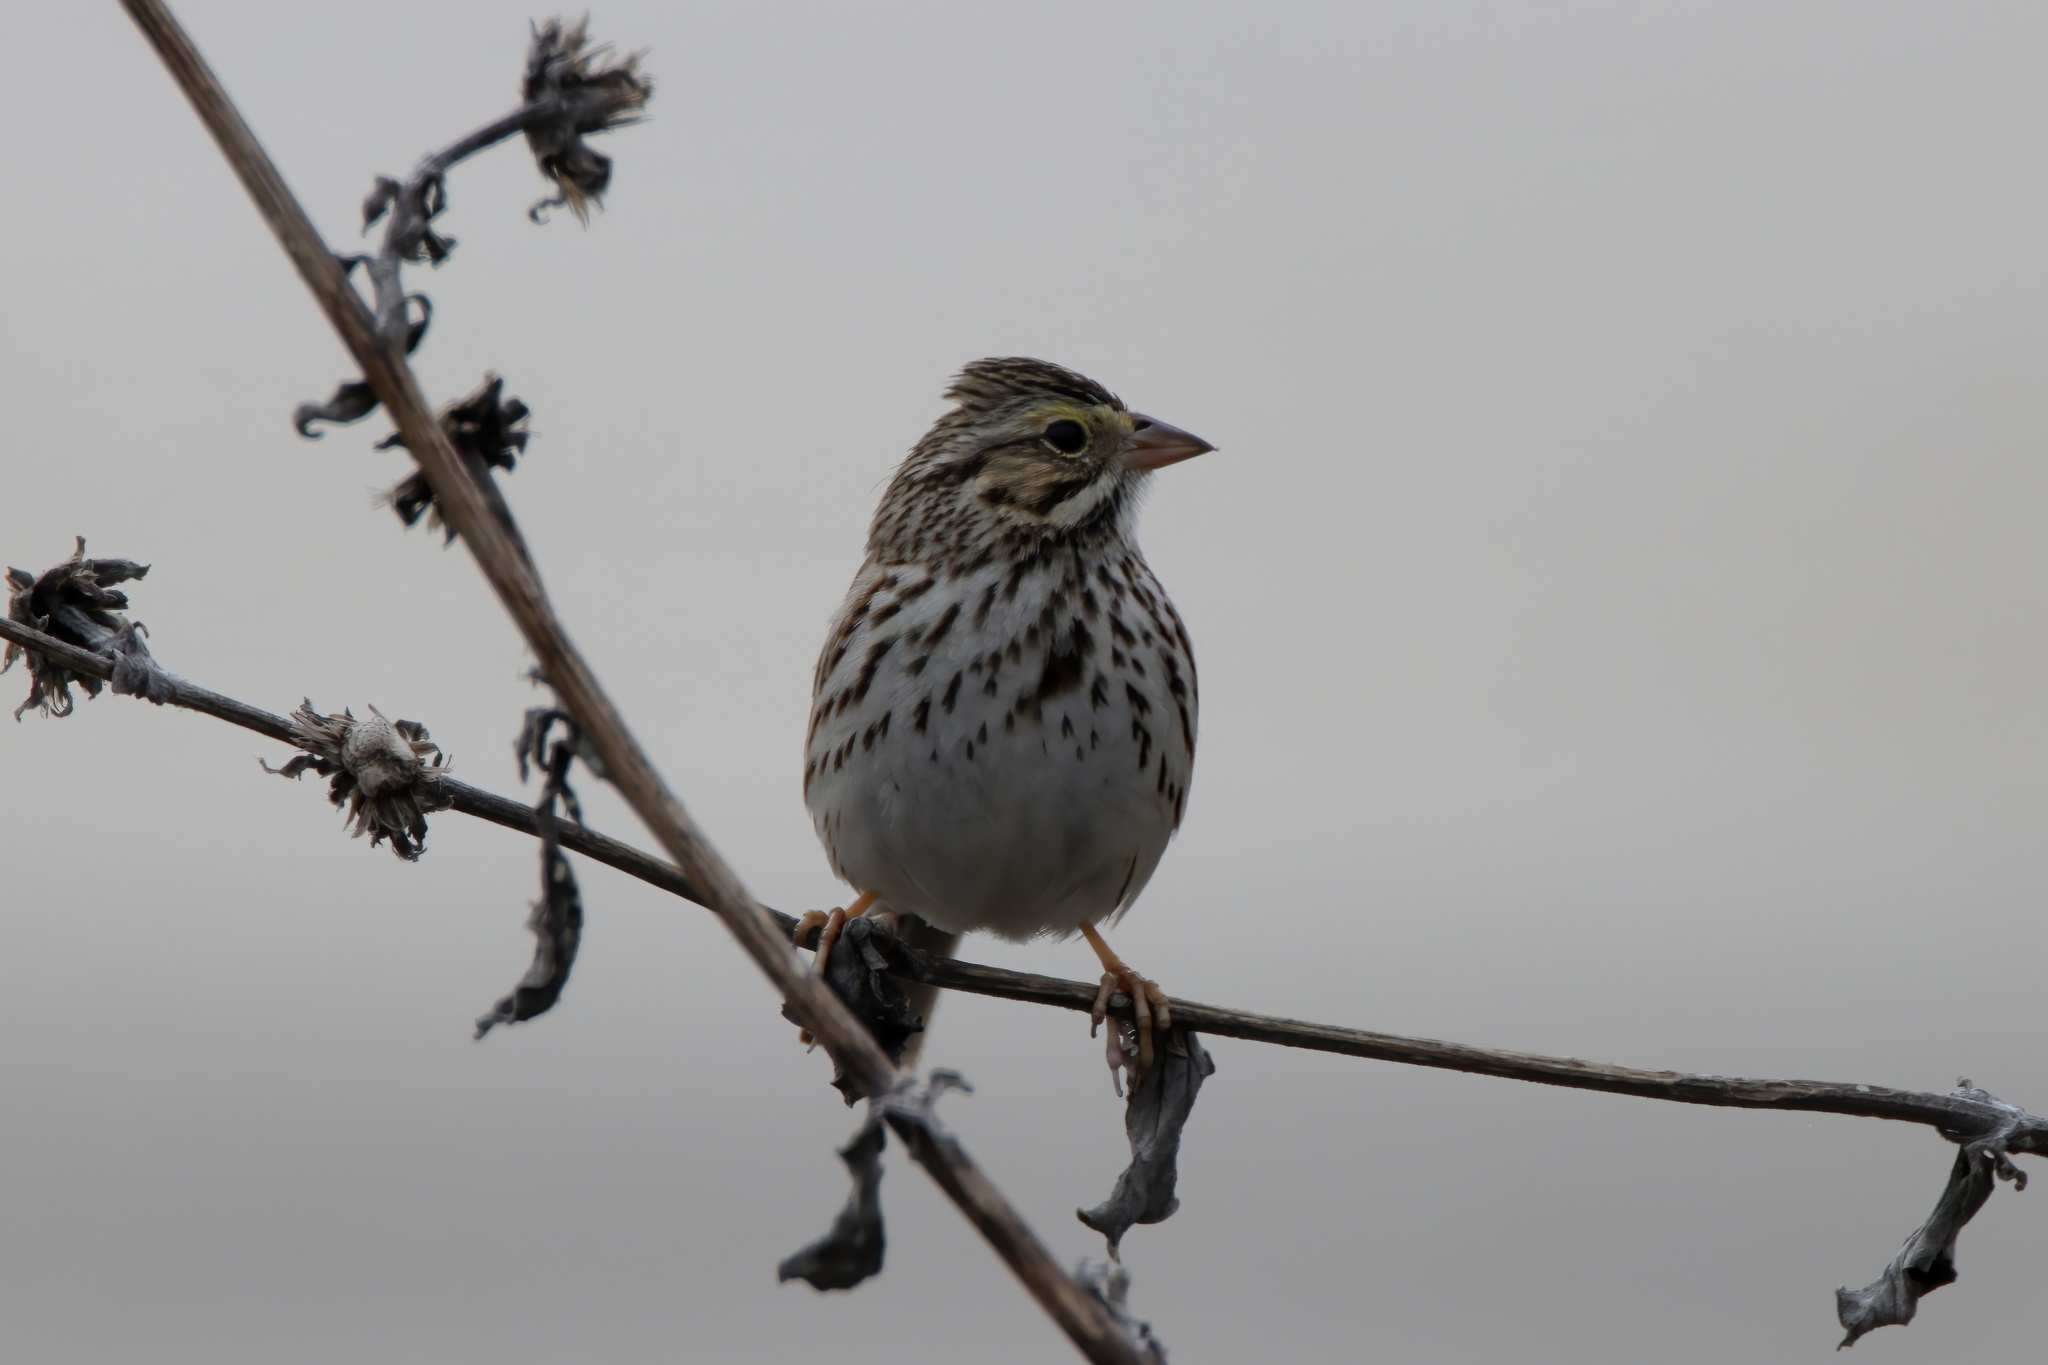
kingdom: Animalia
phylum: Chordata
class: Aves
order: Passeriformes
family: Passerellidae
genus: Passerculus
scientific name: Passerculus sandwichensis
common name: Savannah sparrow
